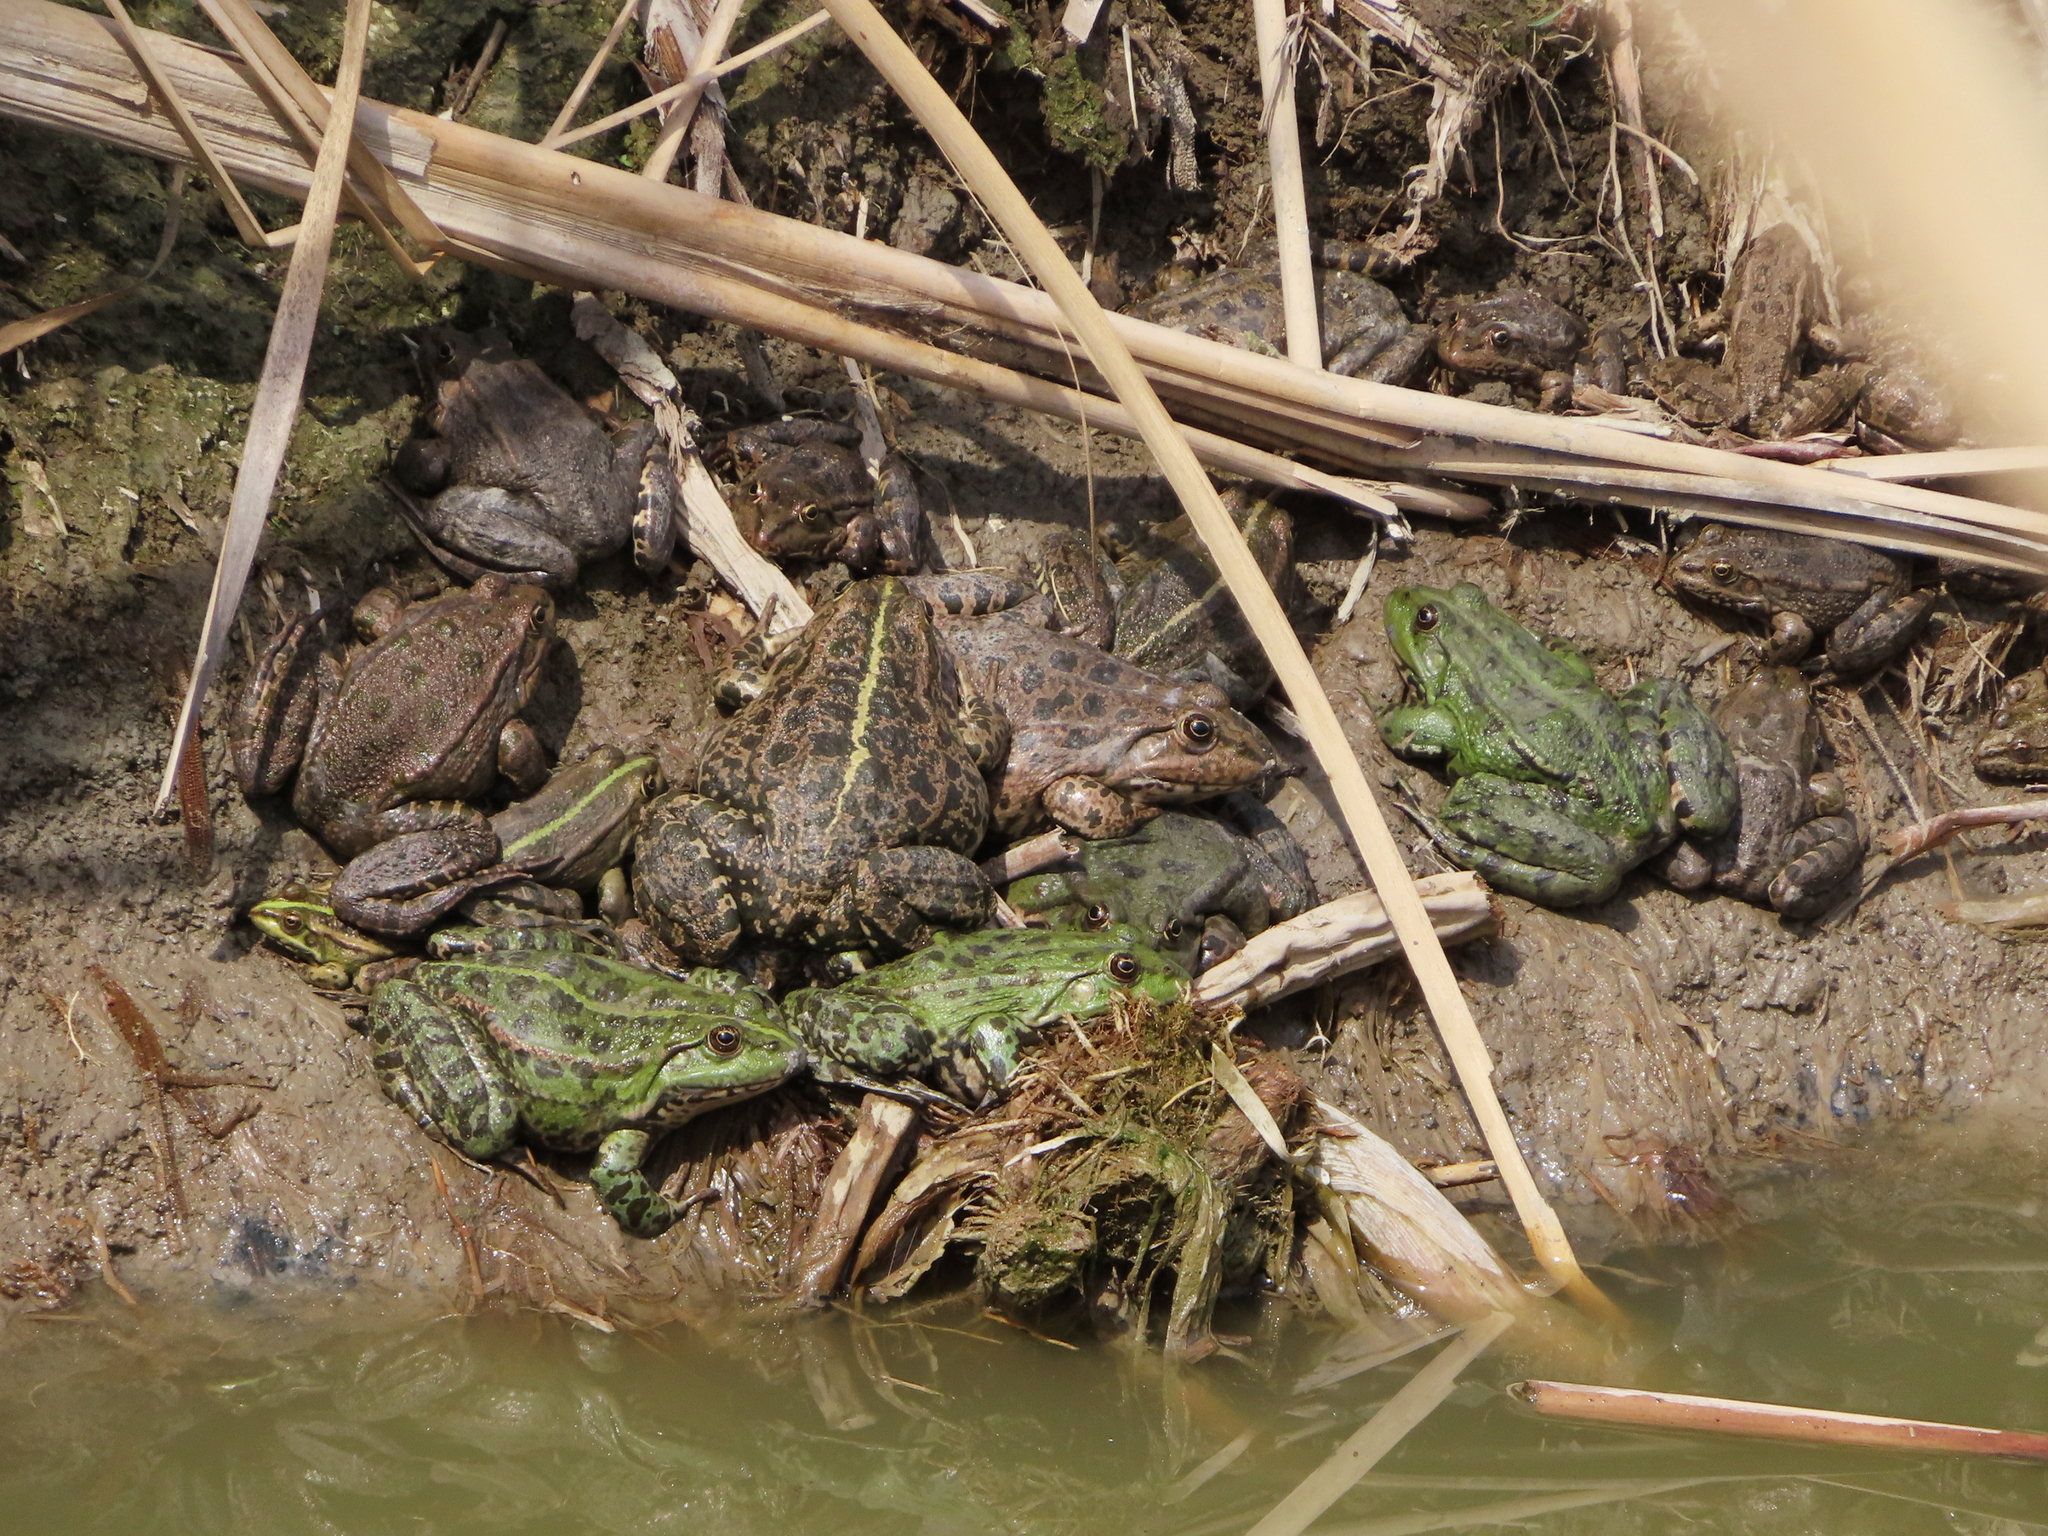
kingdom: Animalia
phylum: Chordata
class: Amphibia
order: Anura
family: Ranidae
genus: Pelophylax
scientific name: Pelophylax ridibundus
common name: Marsh frog
